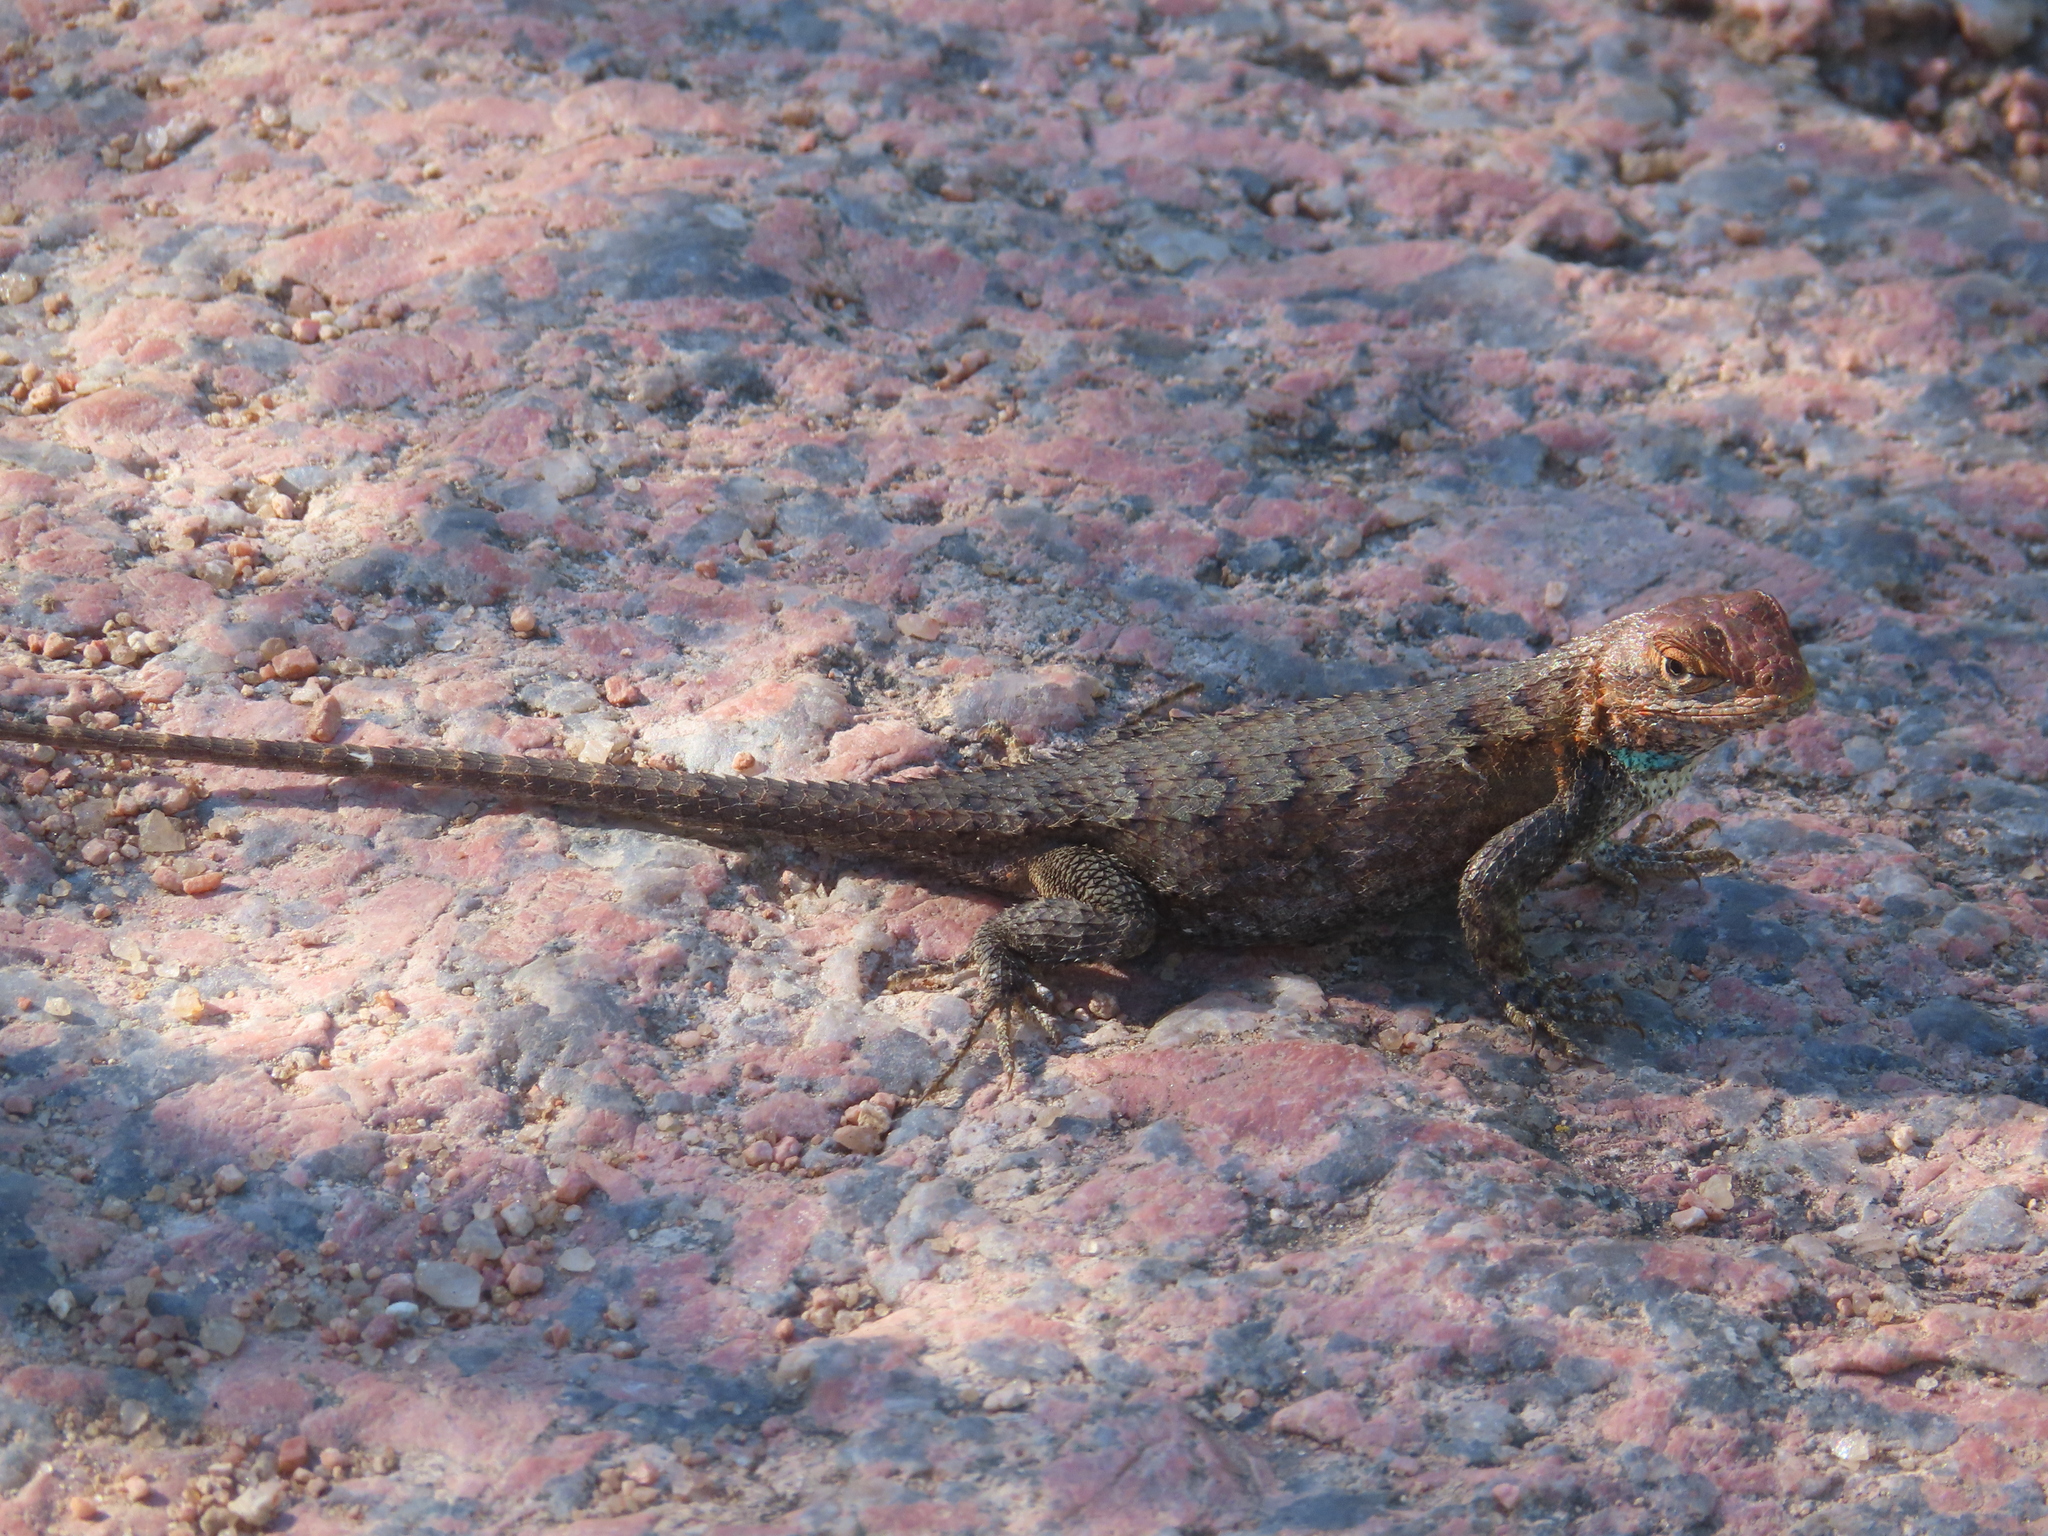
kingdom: Animalia
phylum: Chordata
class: Squamata
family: Phrynosomatidae
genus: Sceloporus
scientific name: Sceloporus consobrinus
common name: Southern prairie lizard
